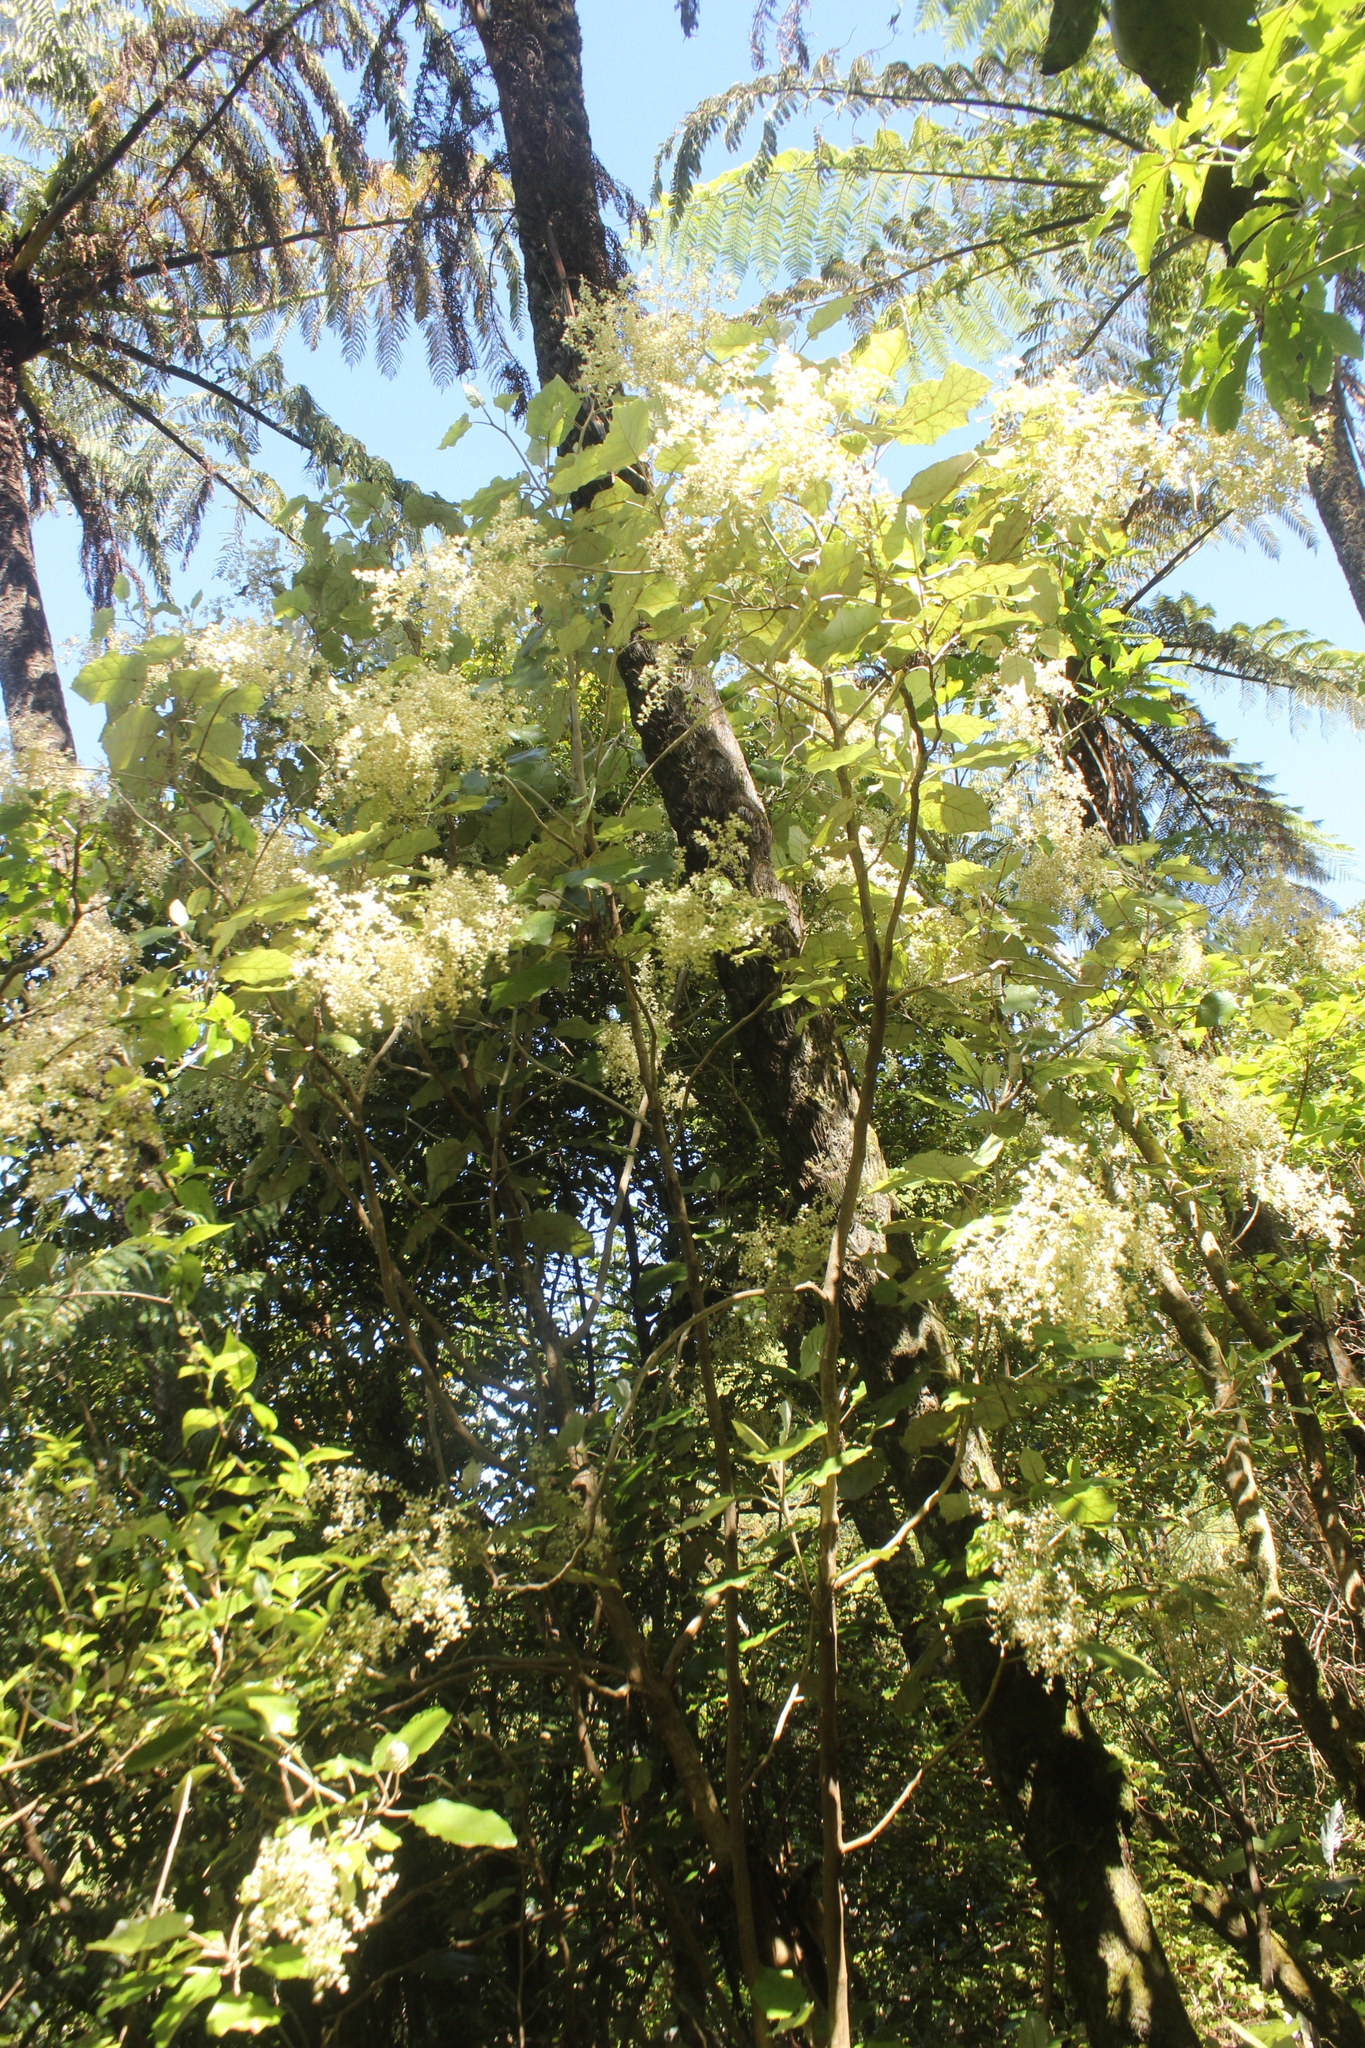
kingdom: Plantae
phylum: Tracheophyta
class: Magnoliopsida
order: Asterales
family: Asteraceae
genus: Brachyglottis
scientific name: Brachyglottis repanda
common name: Hedge ragwort
